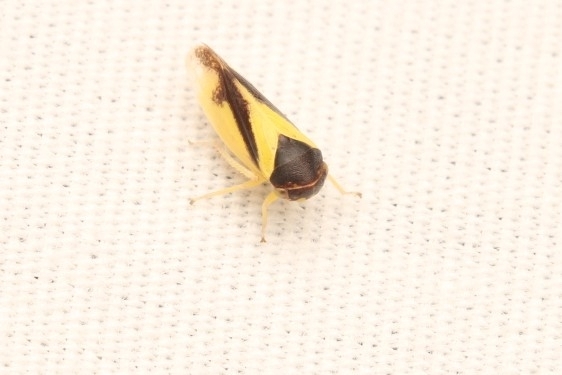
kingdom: Animalia
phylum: Arthropoda
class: Insecta
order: Hemiptera
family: Cicadellidae
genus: Oncopsis
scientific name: Oncopsis variabilis
